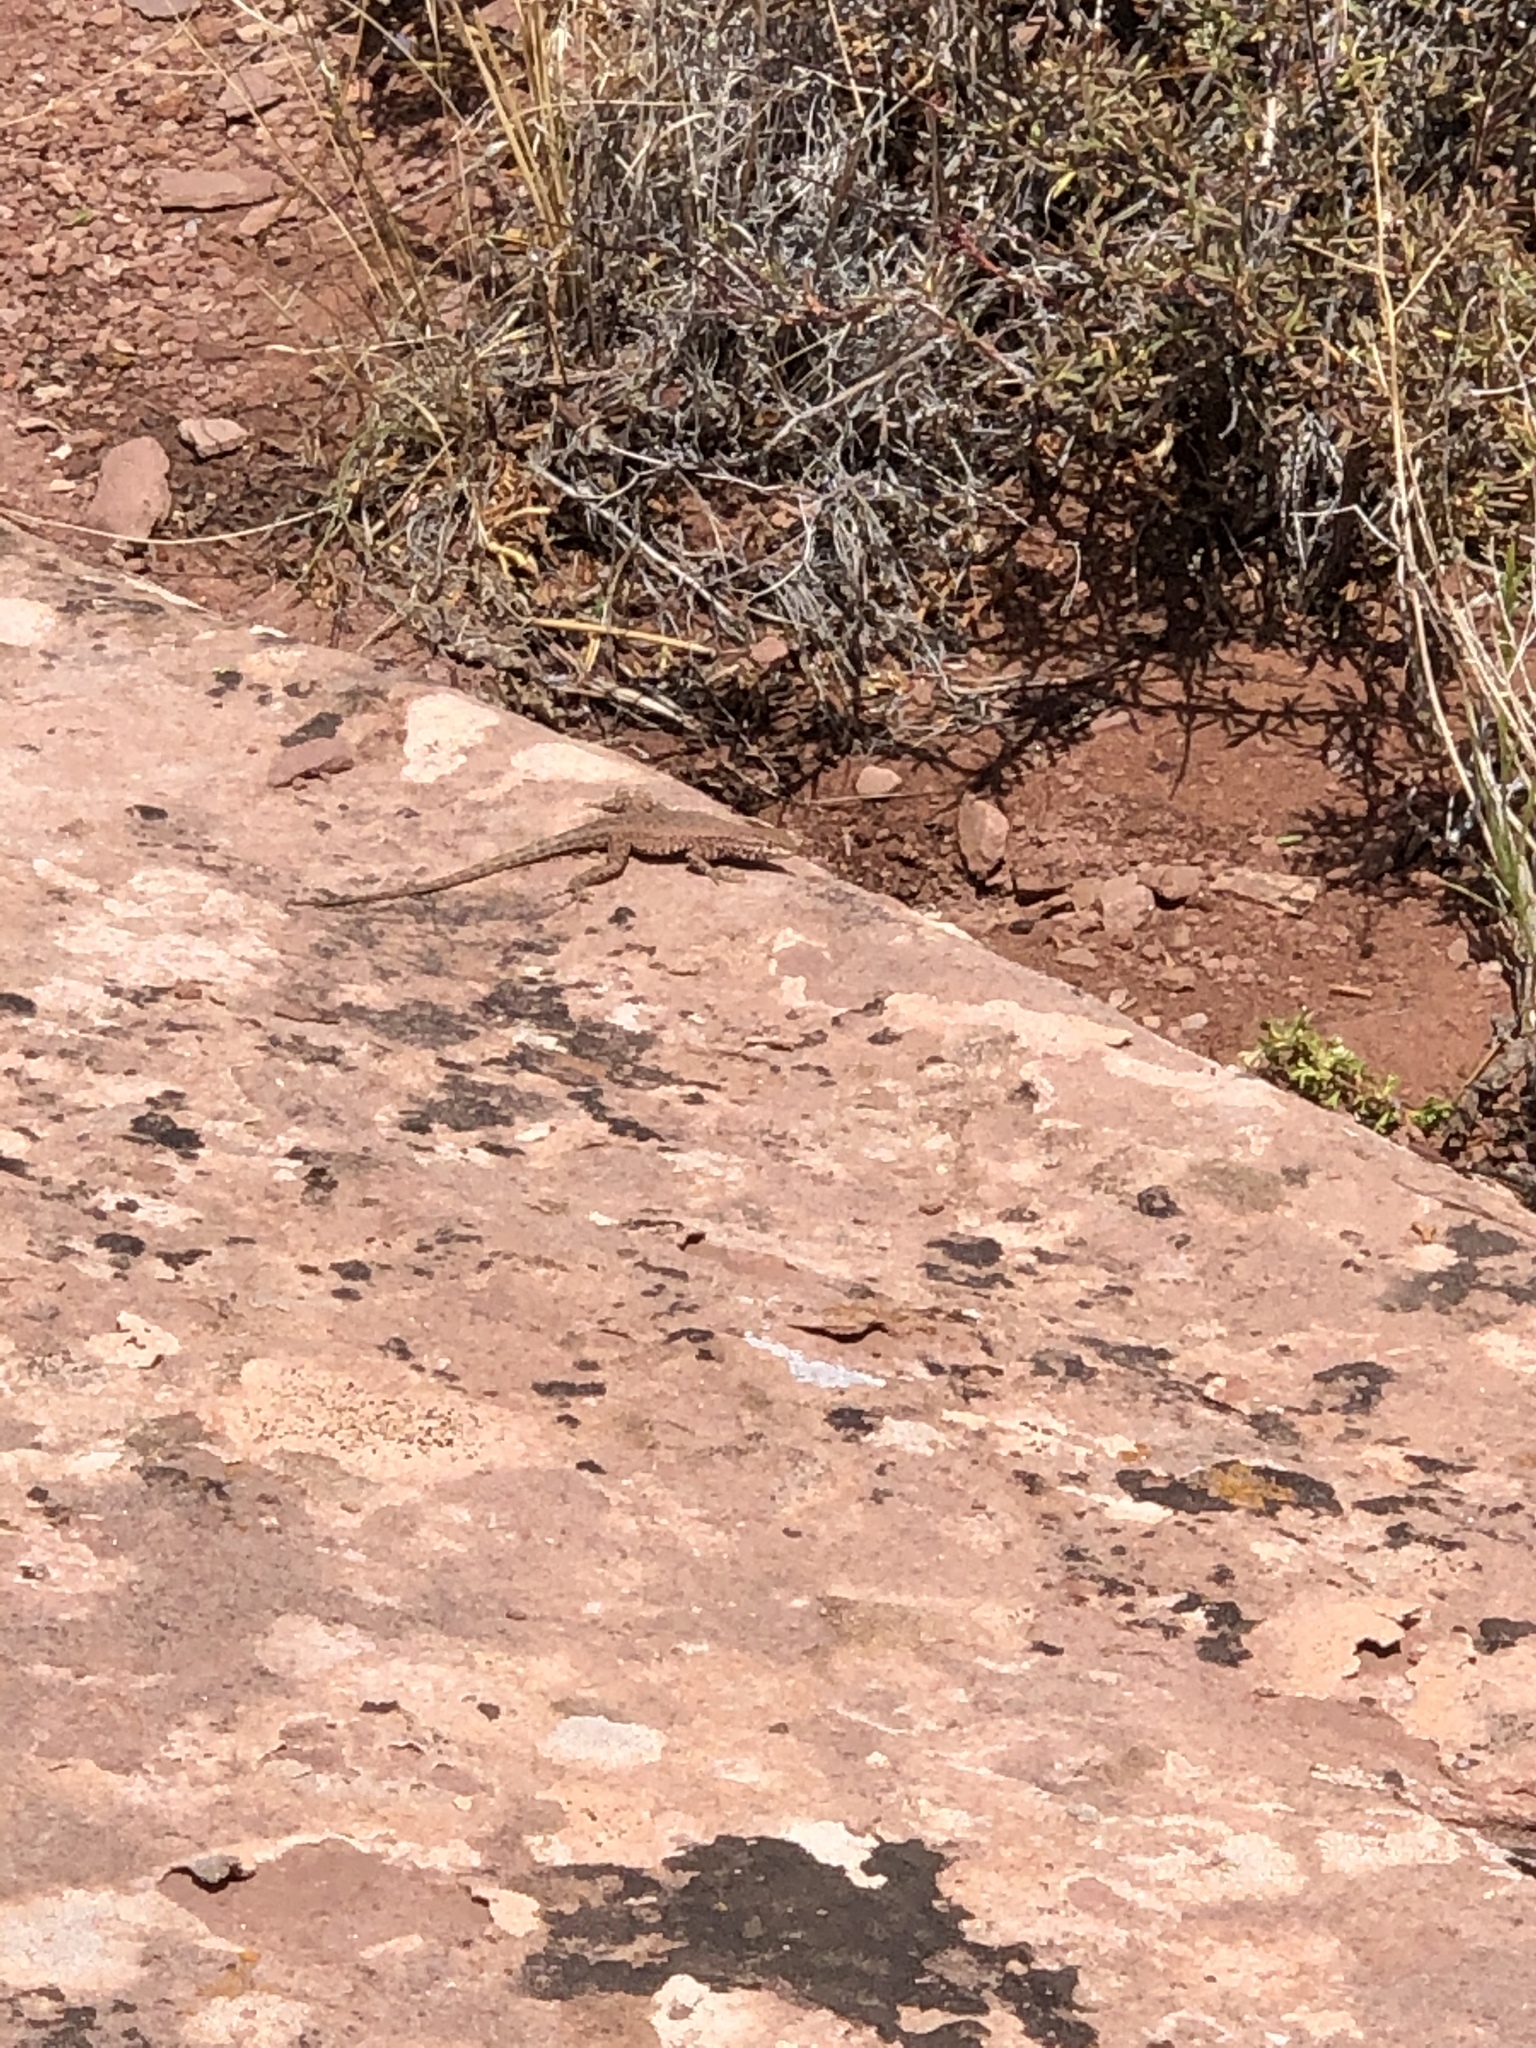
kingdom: Animalia
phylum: Chordata
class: Squamata
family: Phrynosomatidae
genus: Uta
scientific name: Uta stansburiana
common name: Side-blotched lizard
